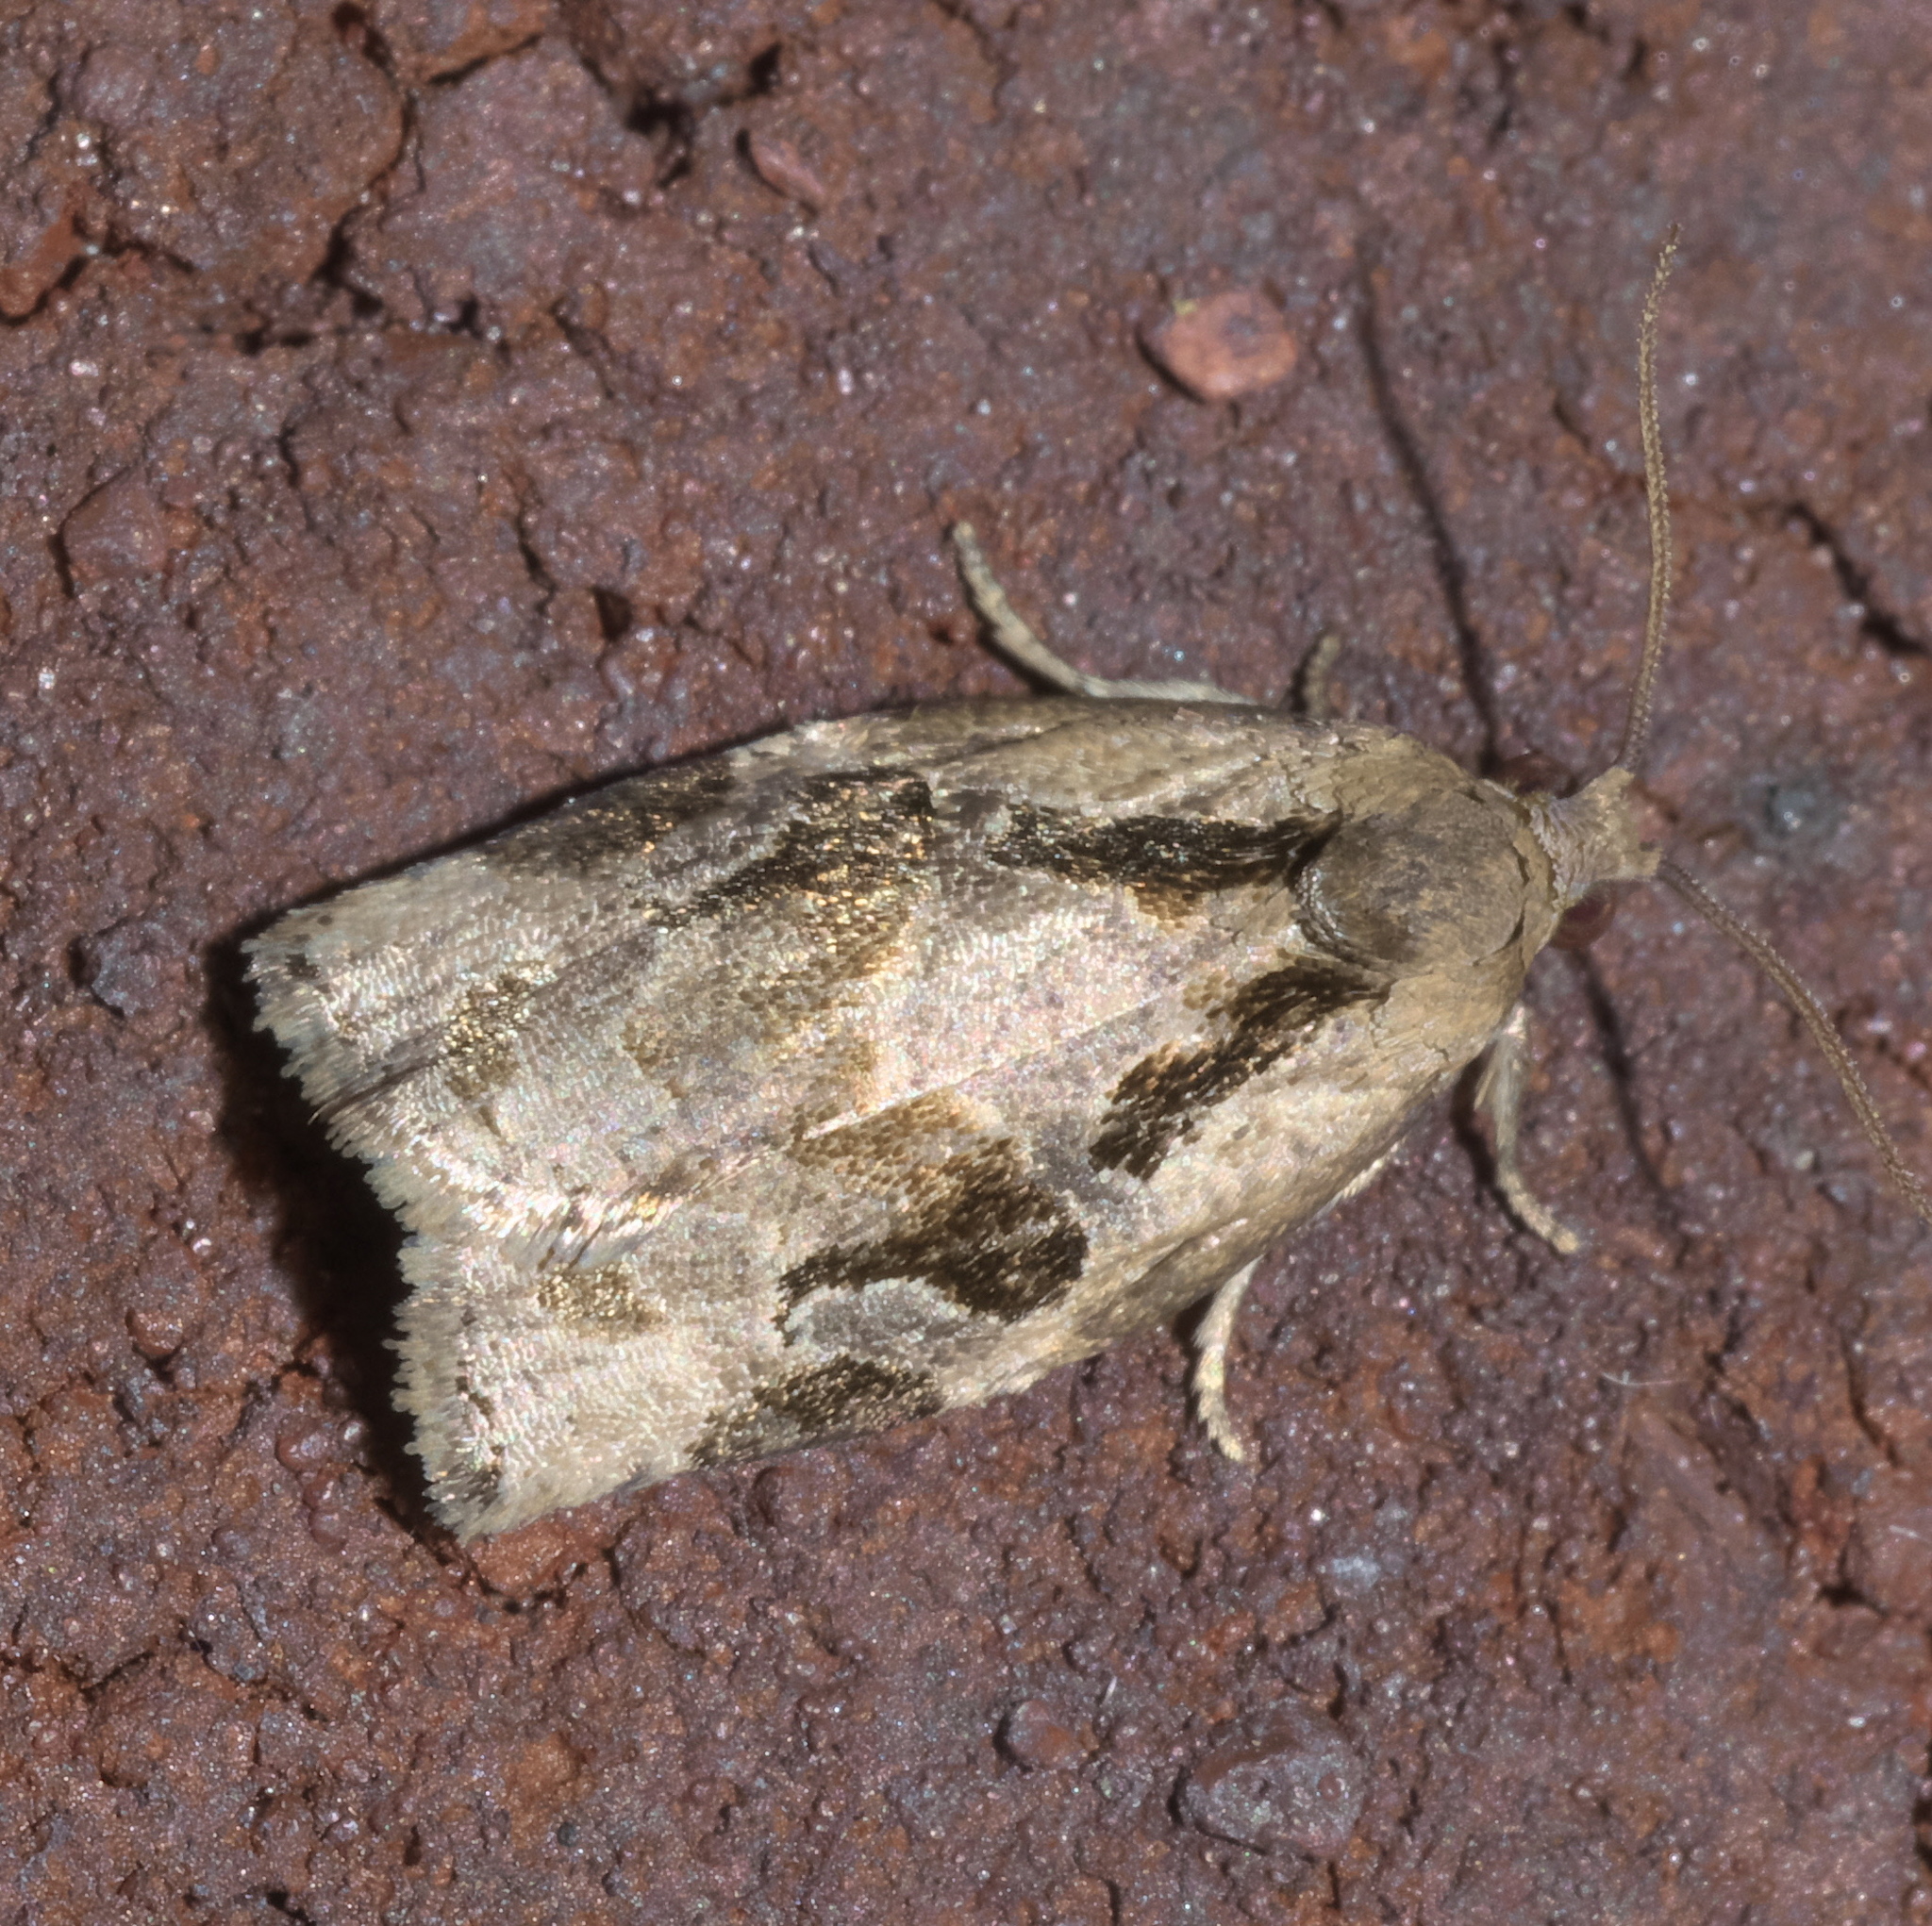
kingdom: Animalia
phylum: Arthropoda
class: Insecta
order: Lepidoptera
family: Tortricidae
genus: Archips
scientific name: Archips grisea
